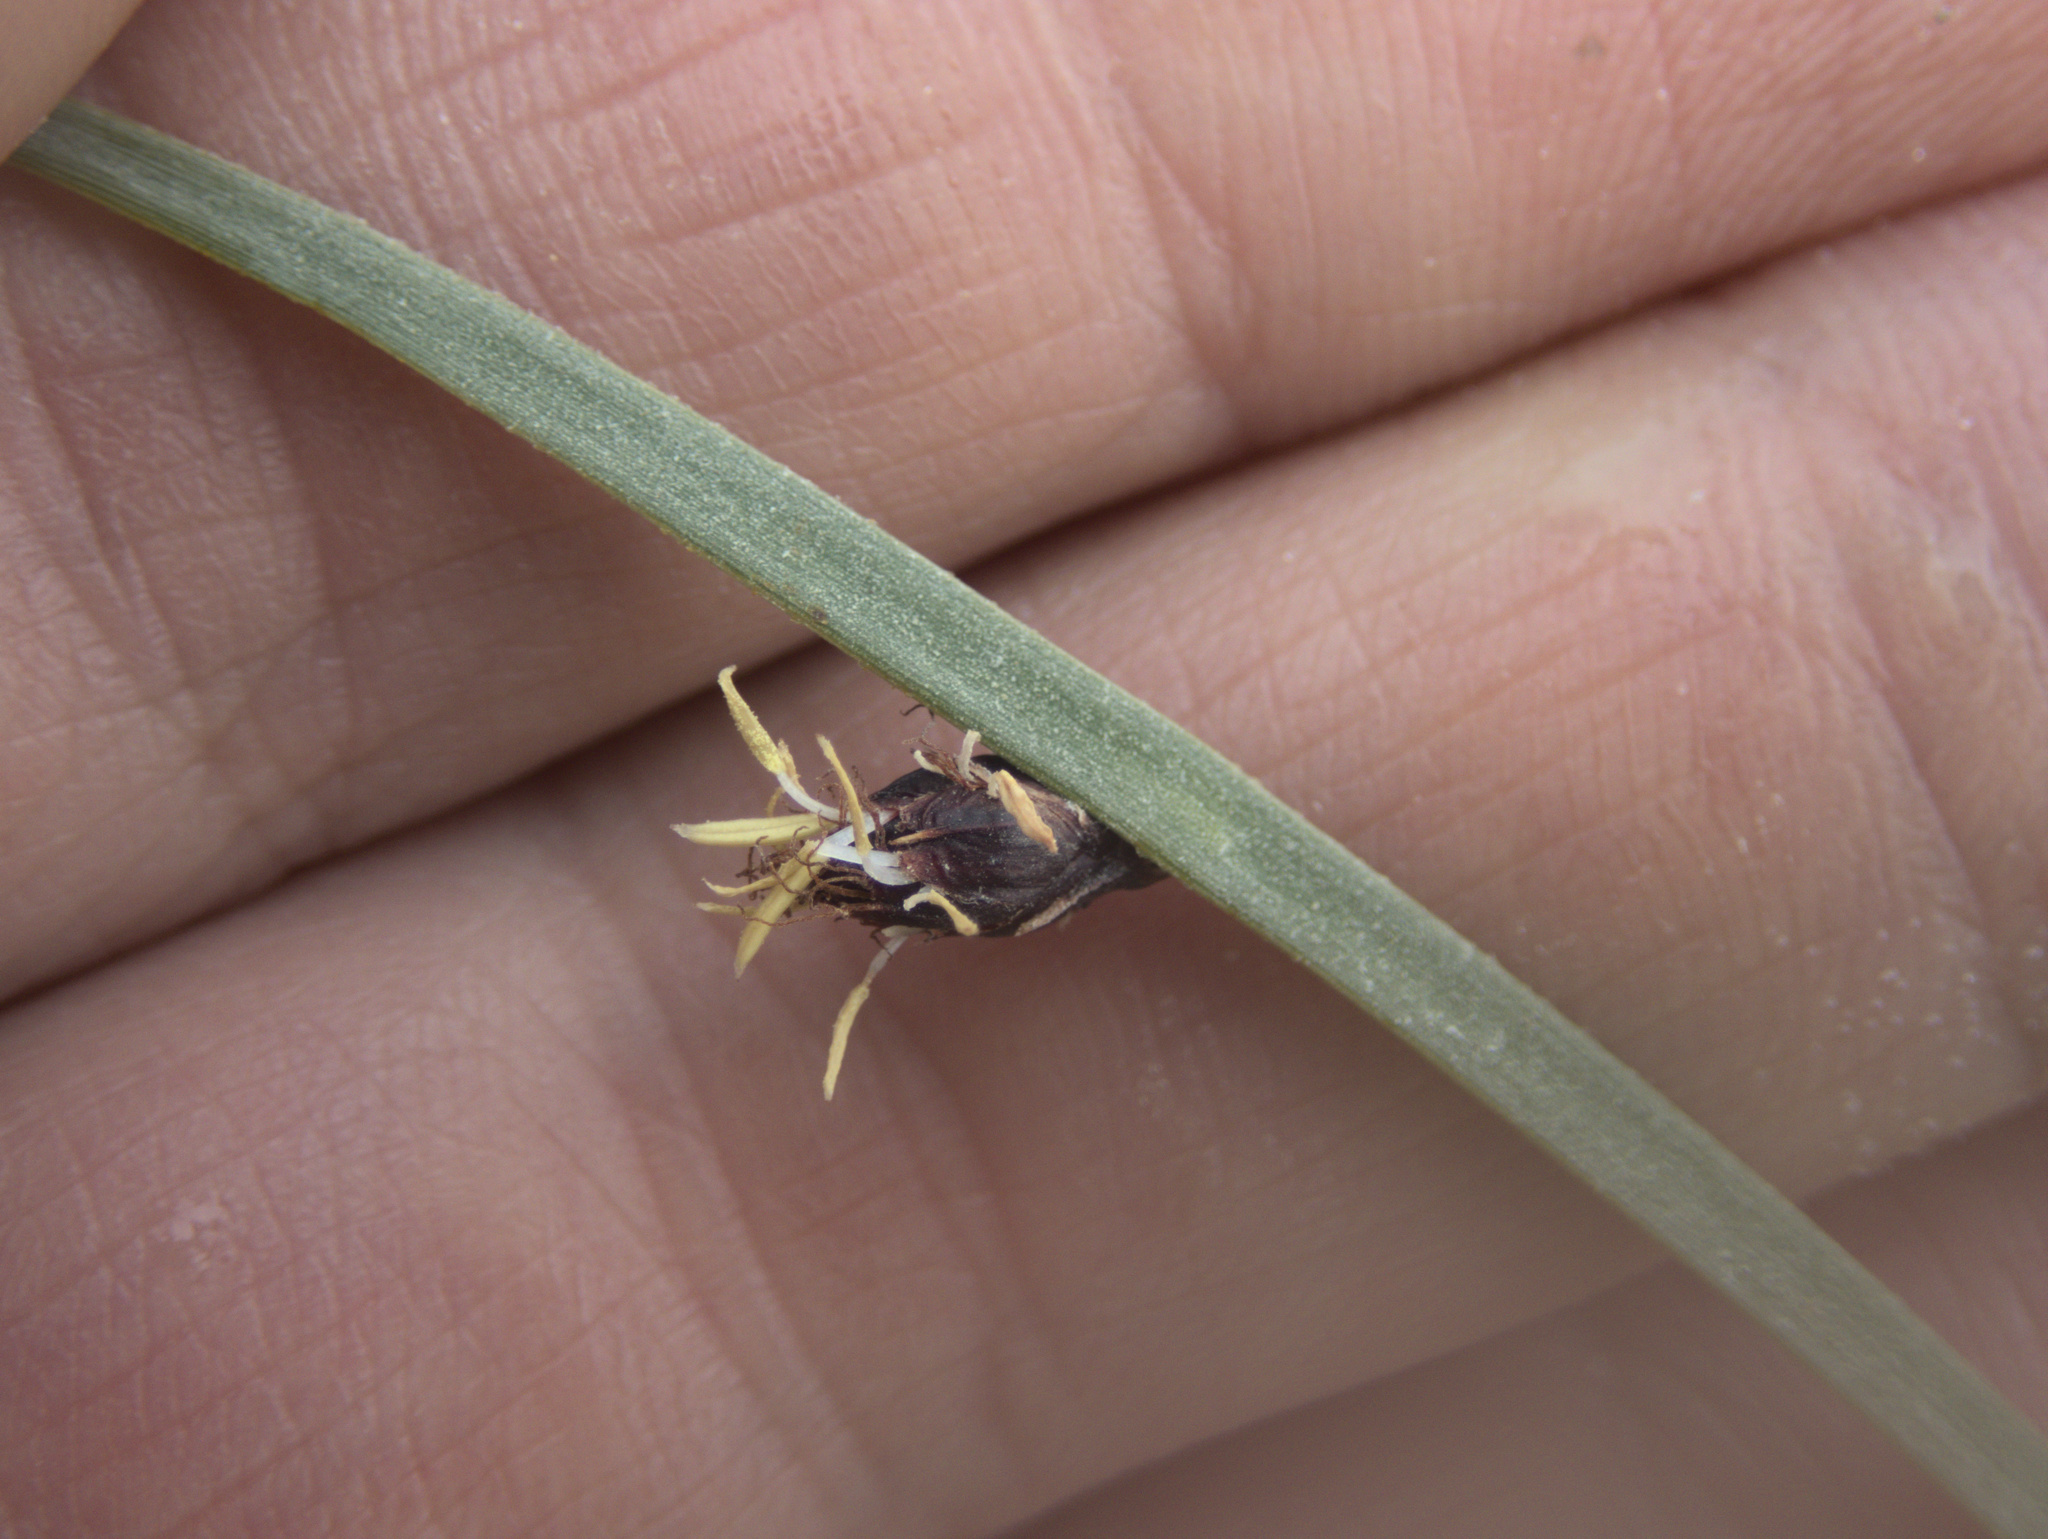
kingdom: Plantae
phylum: Tracheophyta
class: Liliopsida
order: Poales
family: Cyperaceae
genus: Schoenoplectus
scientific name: Schoenoplectus pungens
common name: Sharp club-rush
